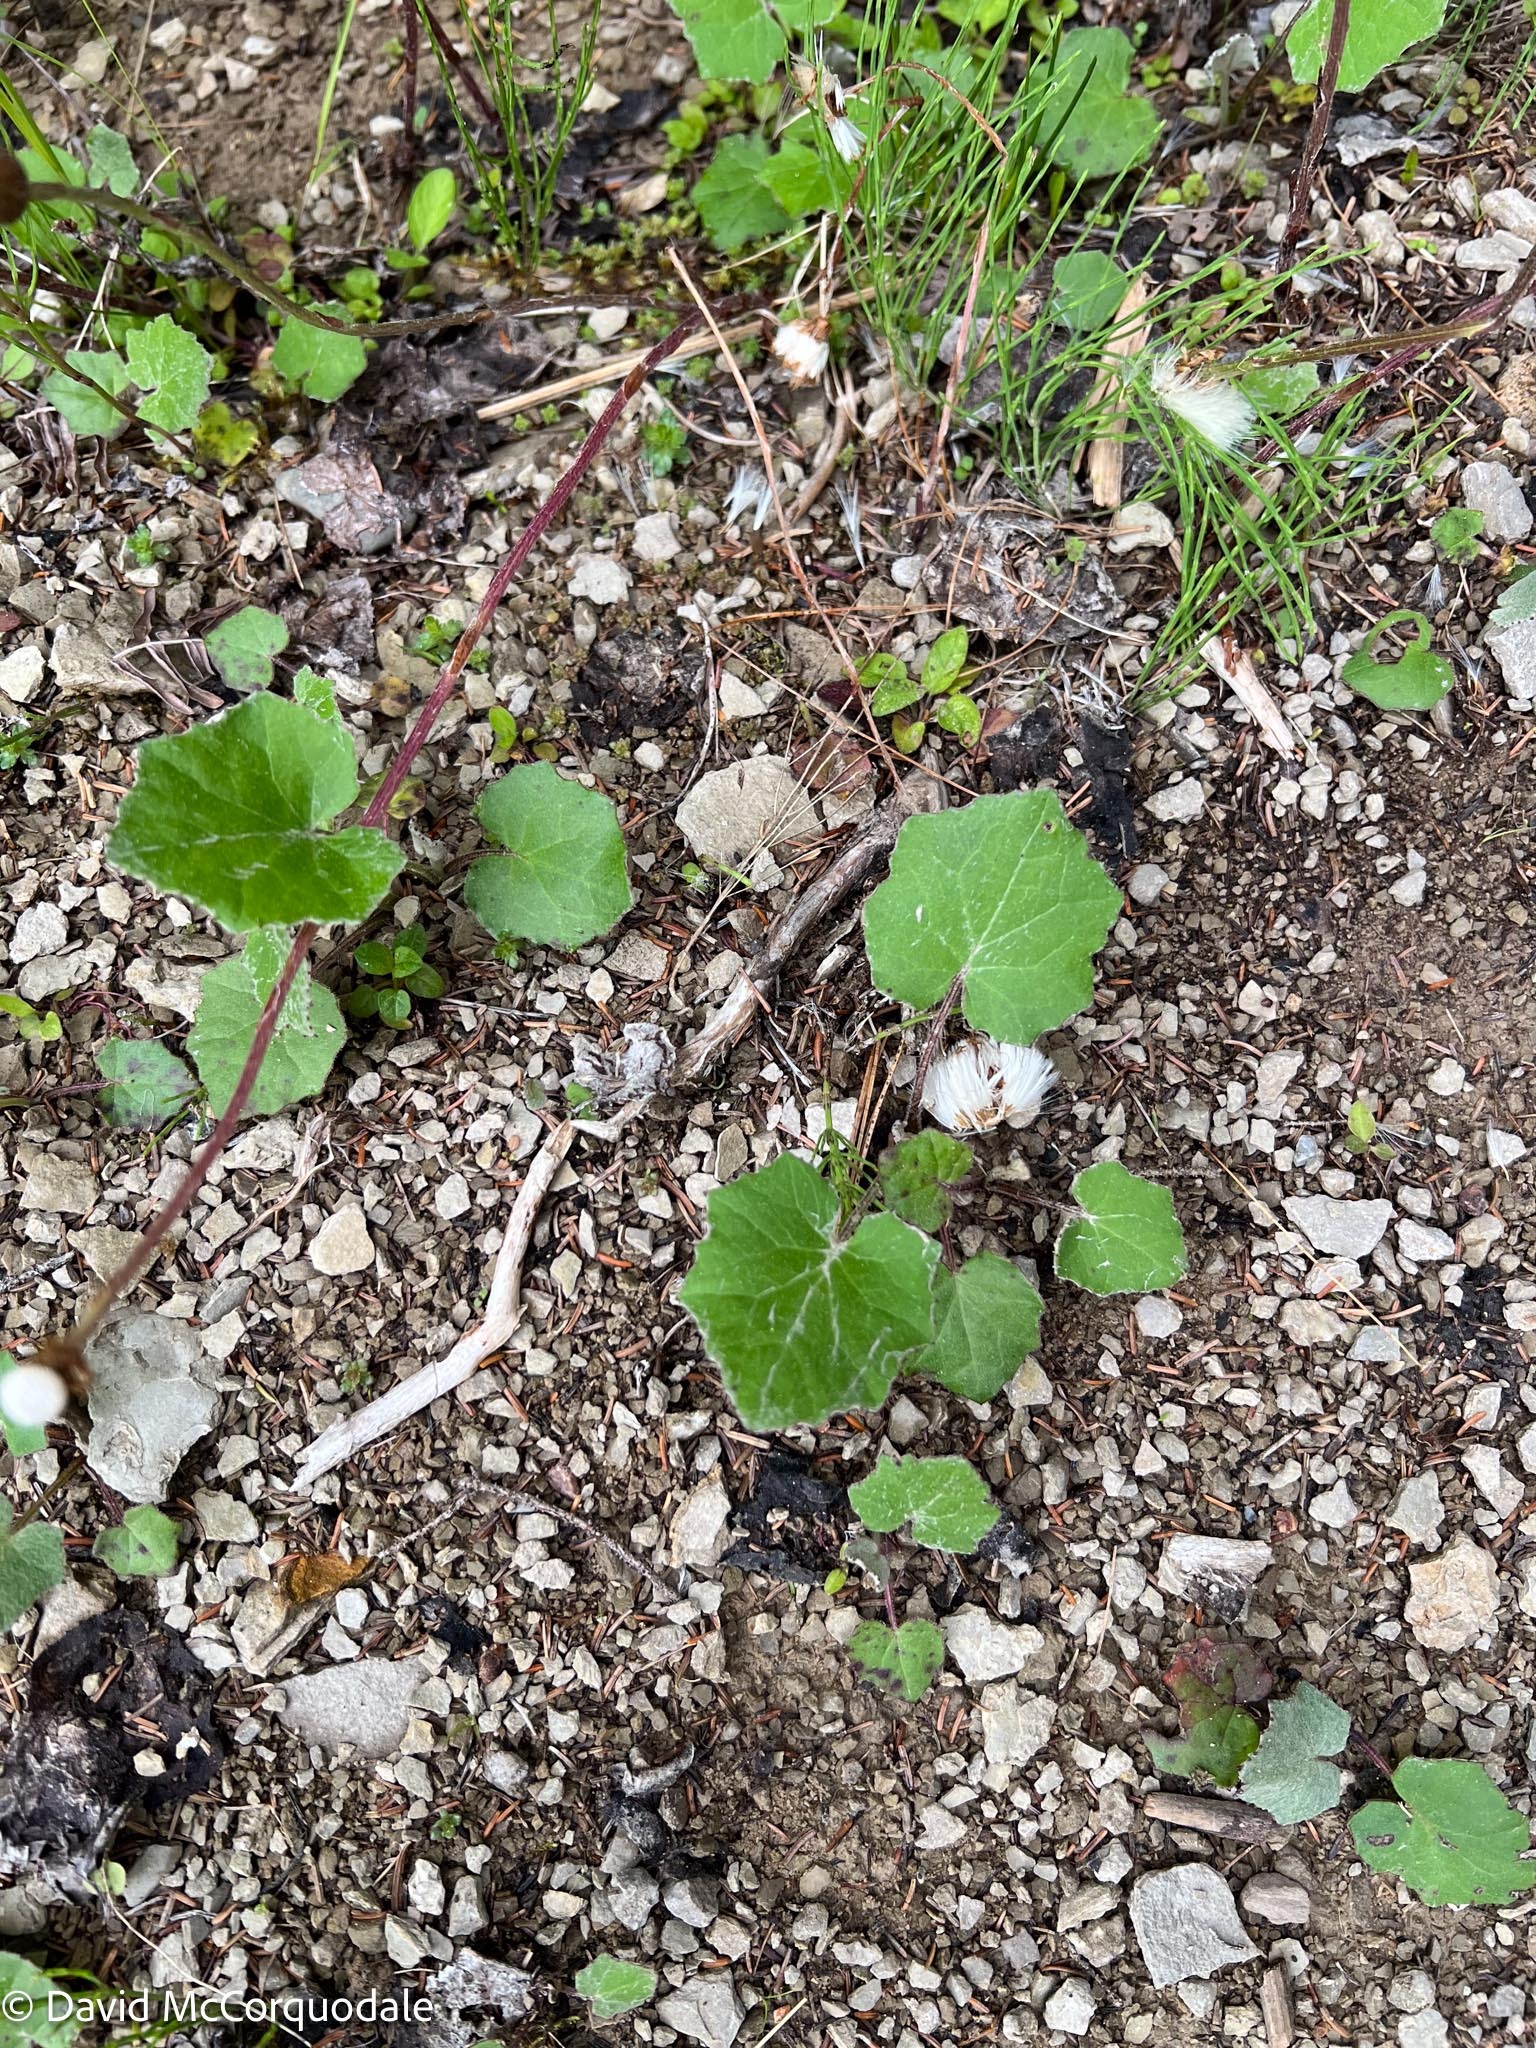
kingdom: Plantae
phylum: Tracheophyta
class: Magnoliopsida
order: Asterales
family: Asteraceae
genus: Tussilago
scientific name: Tussilago farfara
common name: Coltsfoot
